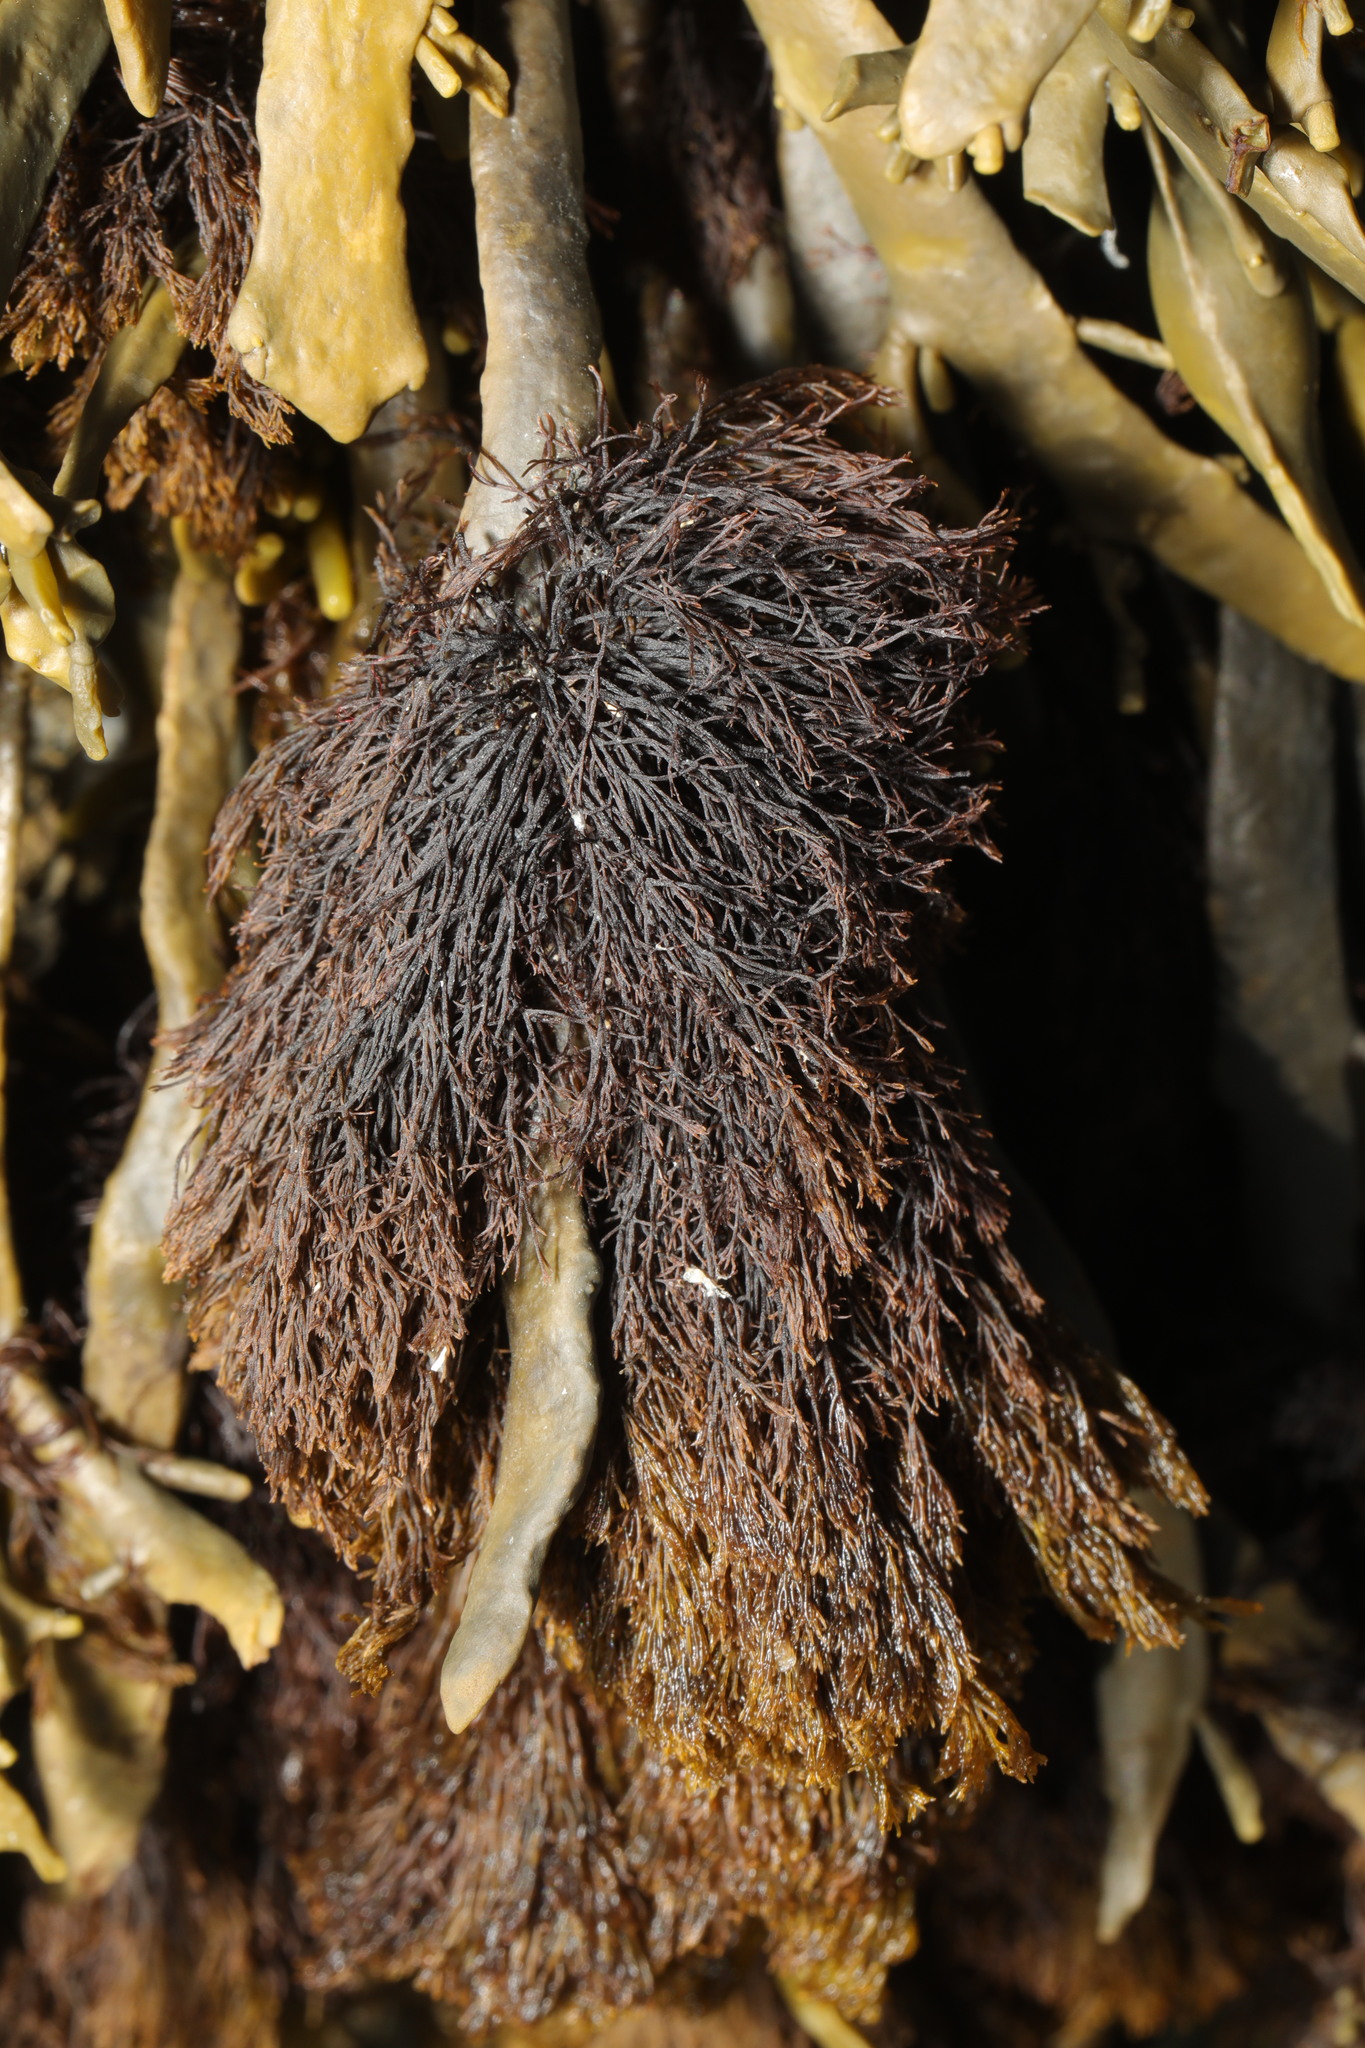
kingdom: Plantae
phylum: Rhodophyta
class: Florideophyceae
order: Ceramiales
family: Rhodomelaceae
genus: Vertebrata
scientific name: Vertebrata lanosa
